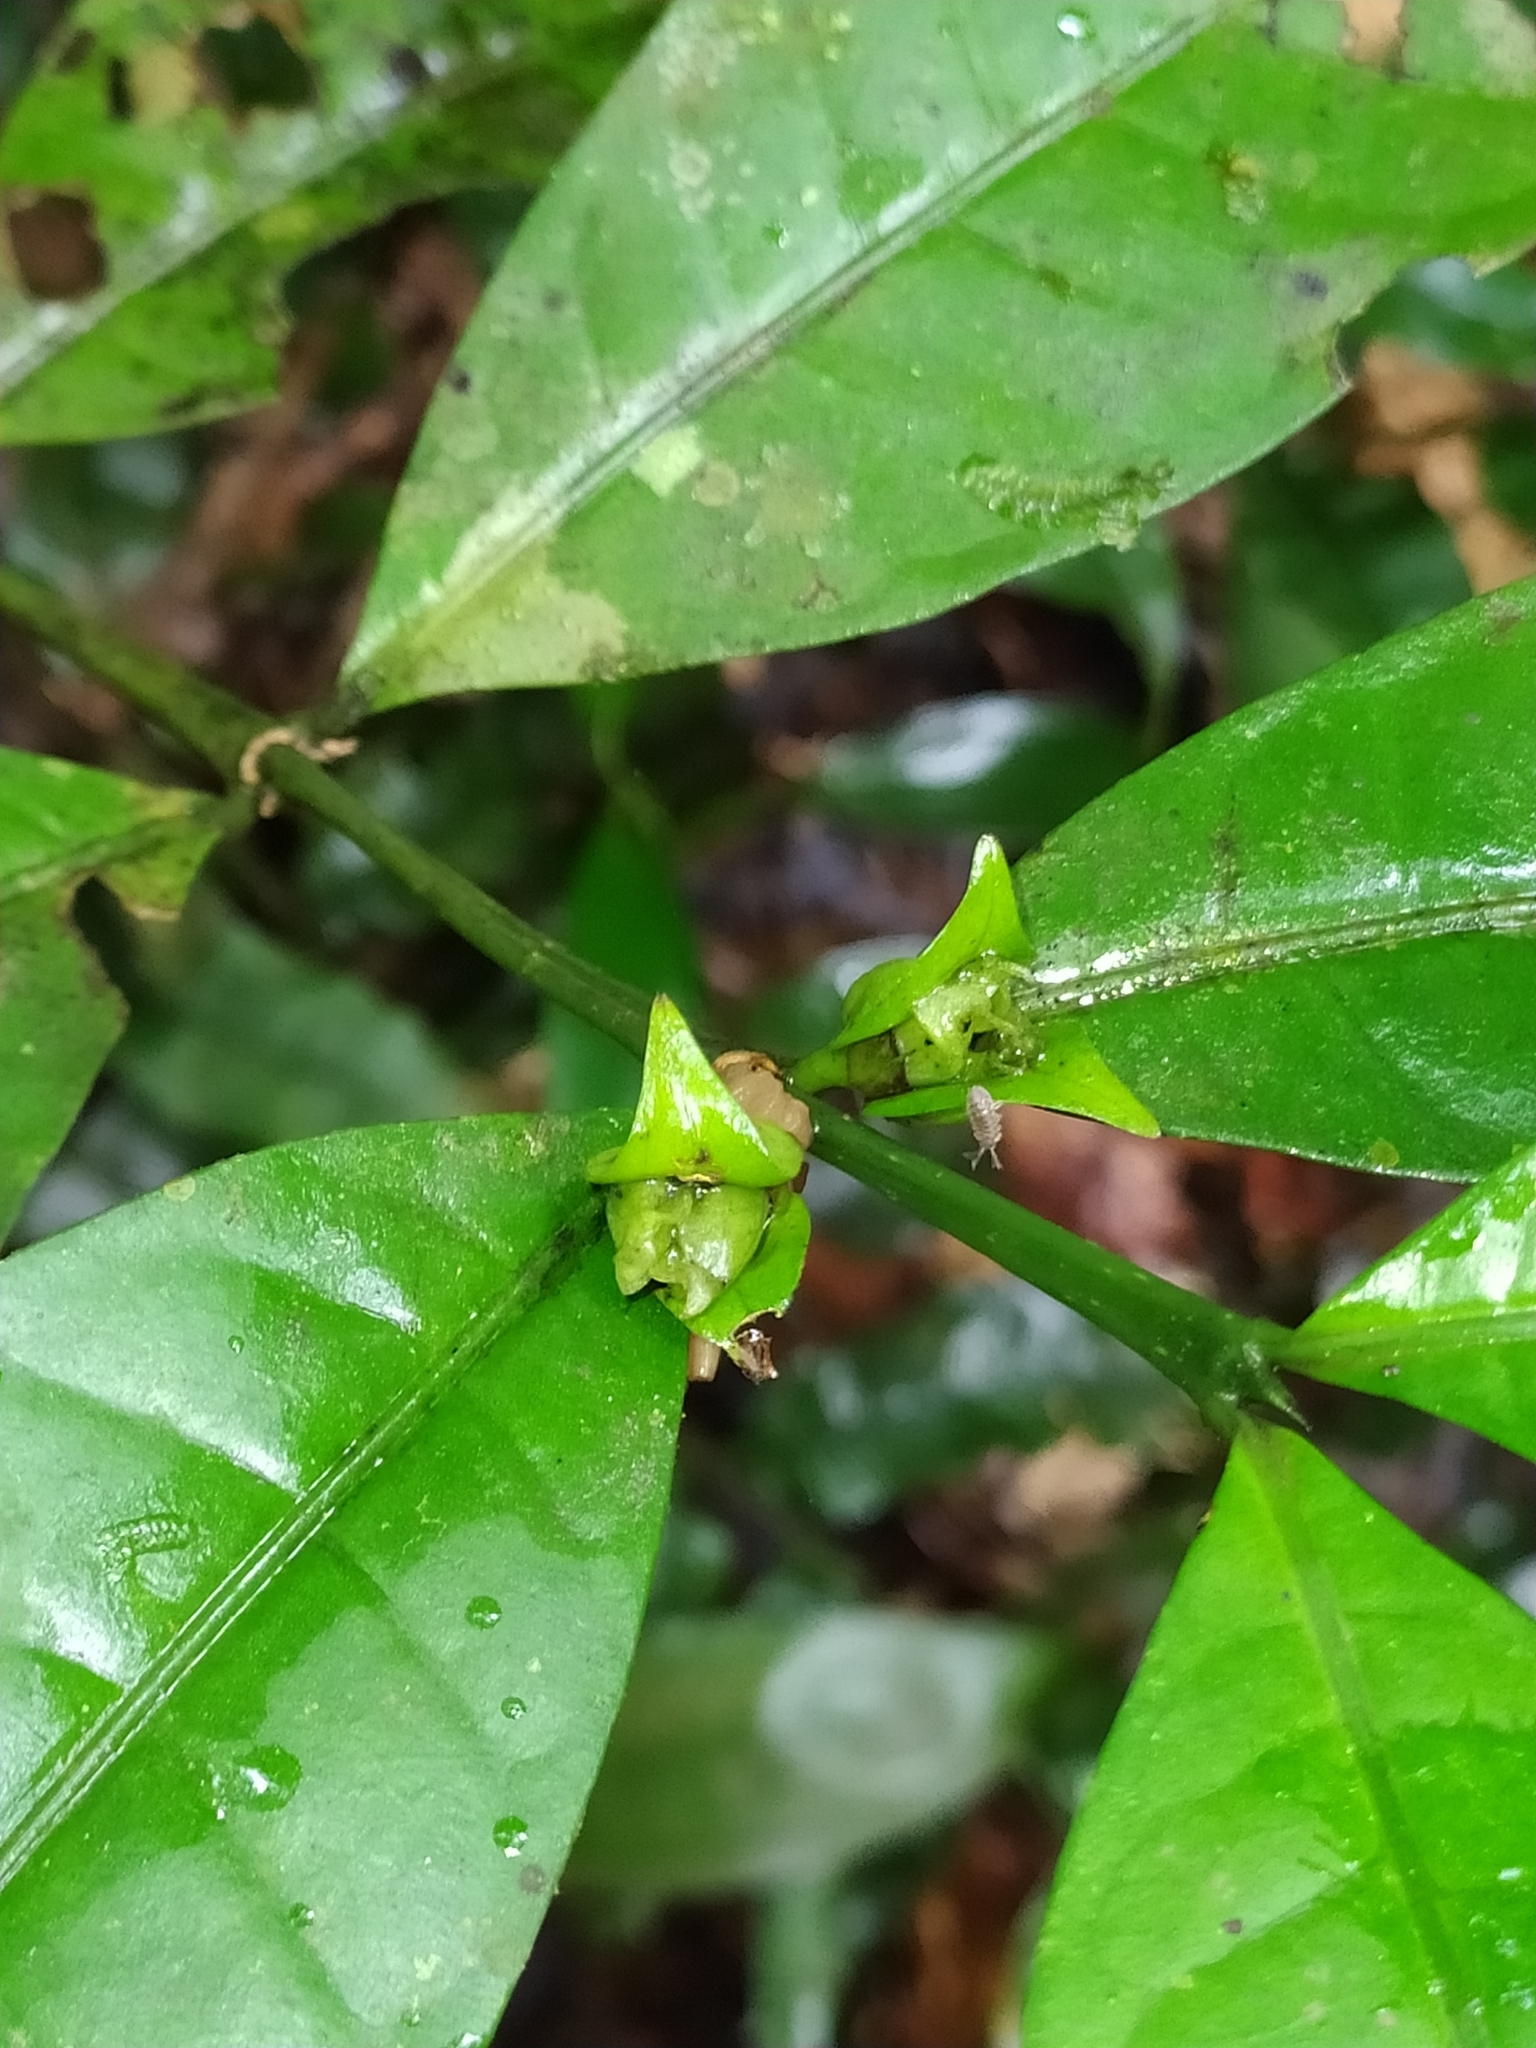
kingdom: Plantae
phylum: Tracheophyta
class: Magnoliopsida
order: Gentianales
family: Rubiaceae
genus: Faramea
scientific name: Faramea guianensis
